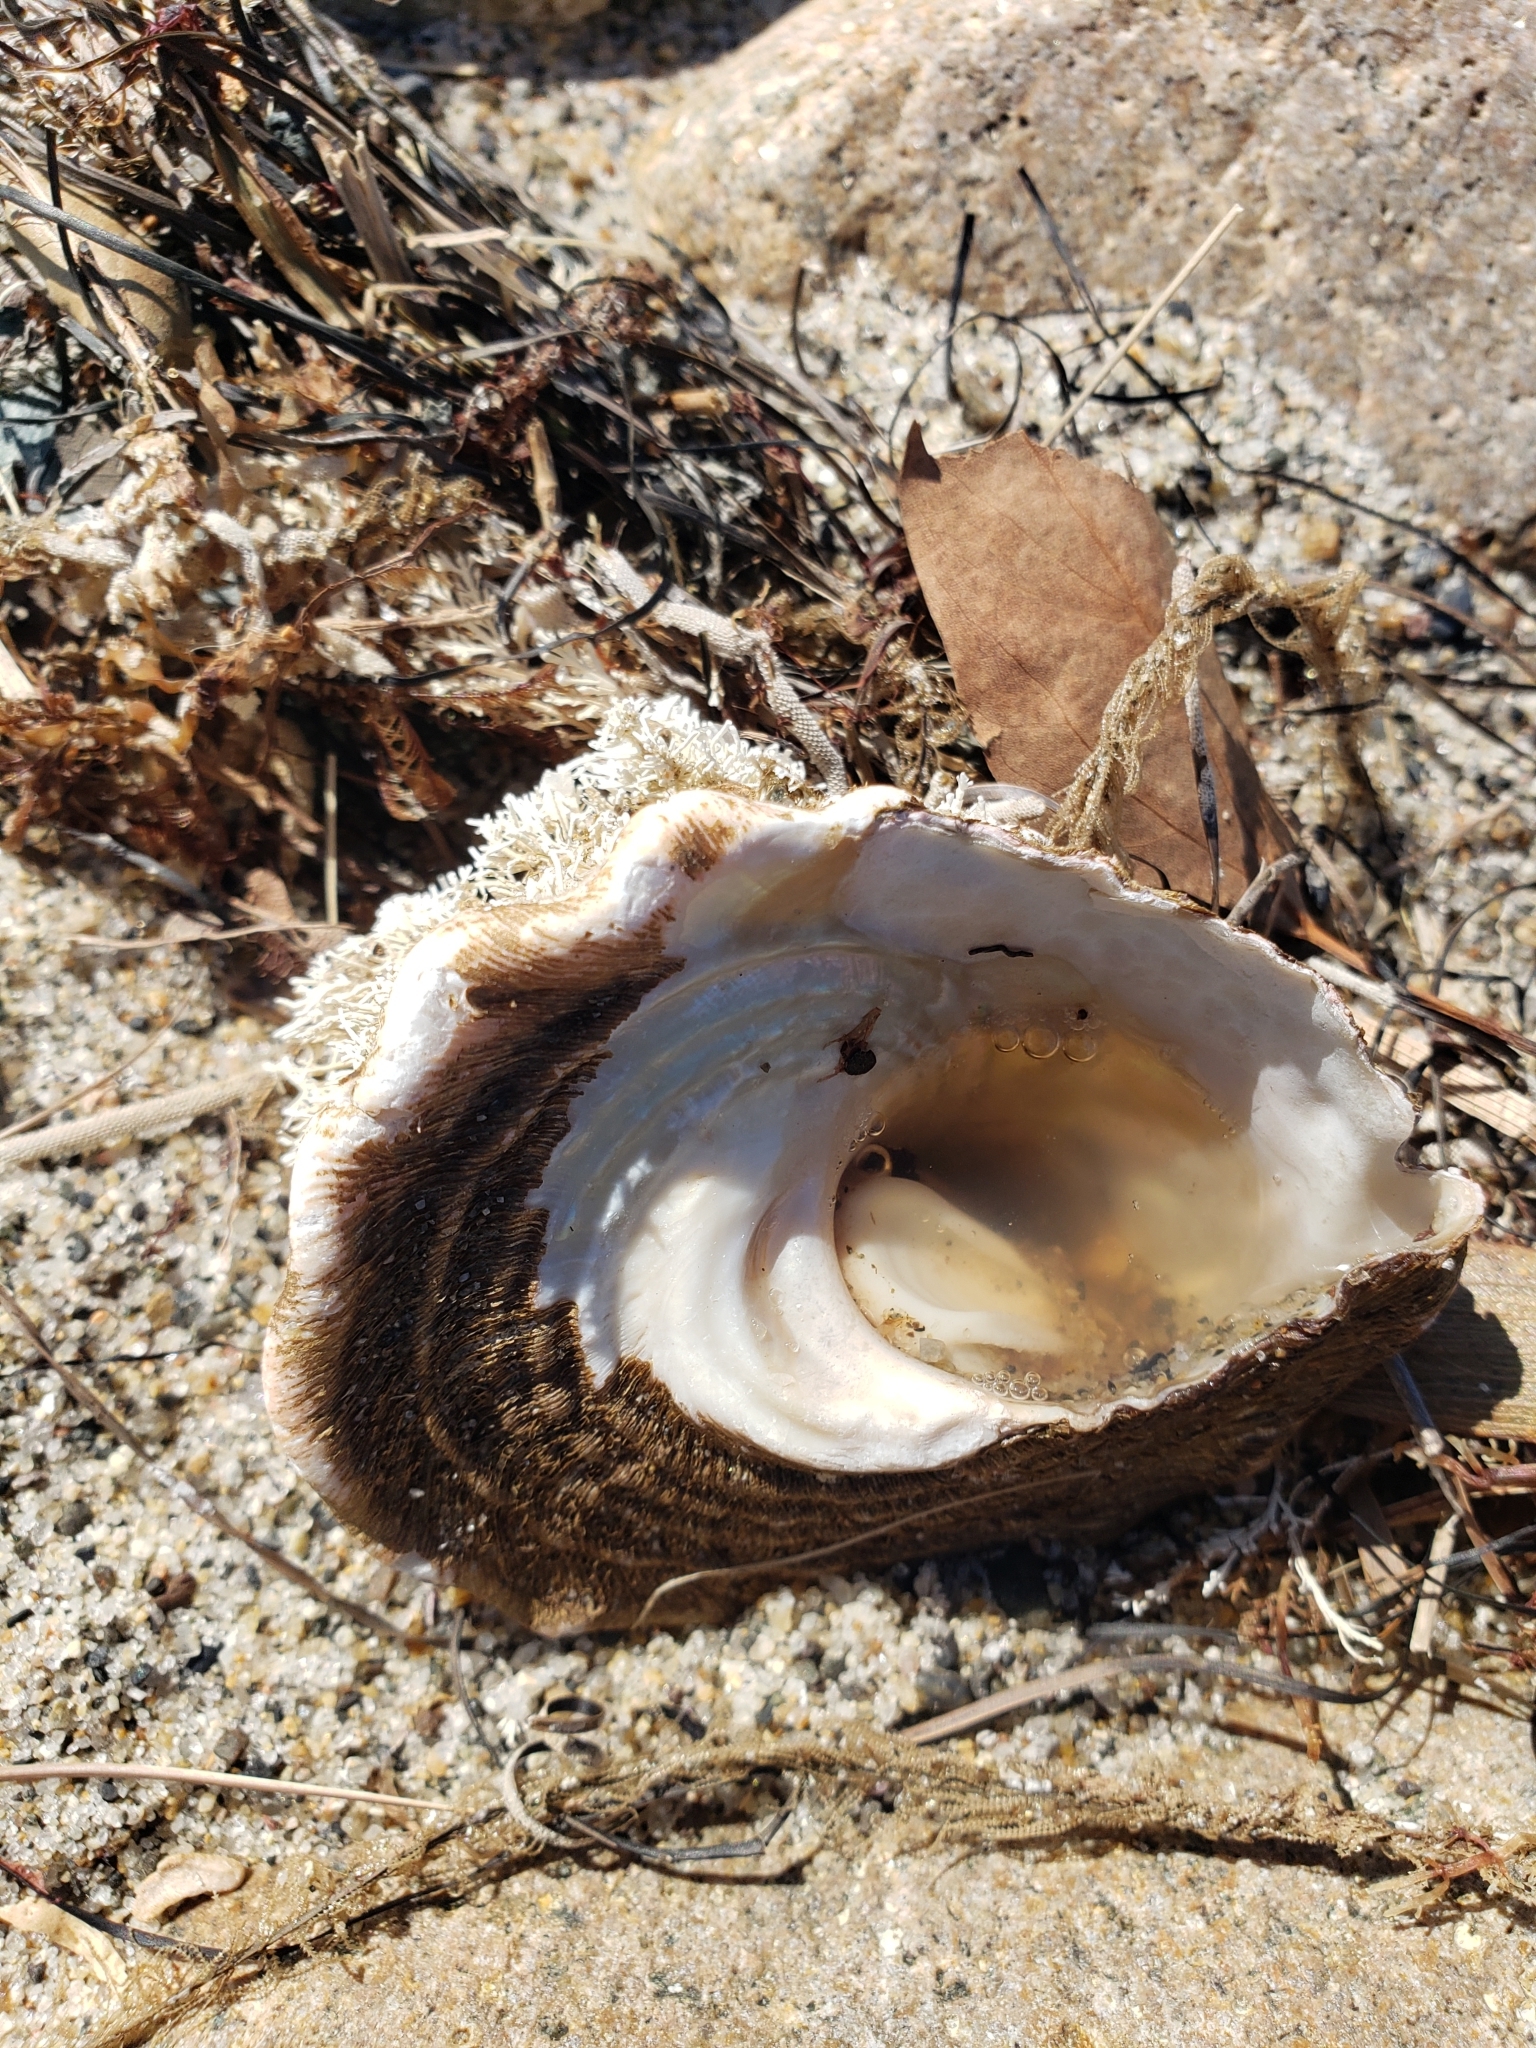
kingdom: Animalia
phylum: Mollusca
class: Gastropoda
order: Trochida
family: Turbinidae
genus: Megastraea
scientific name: Megastraea undosa
